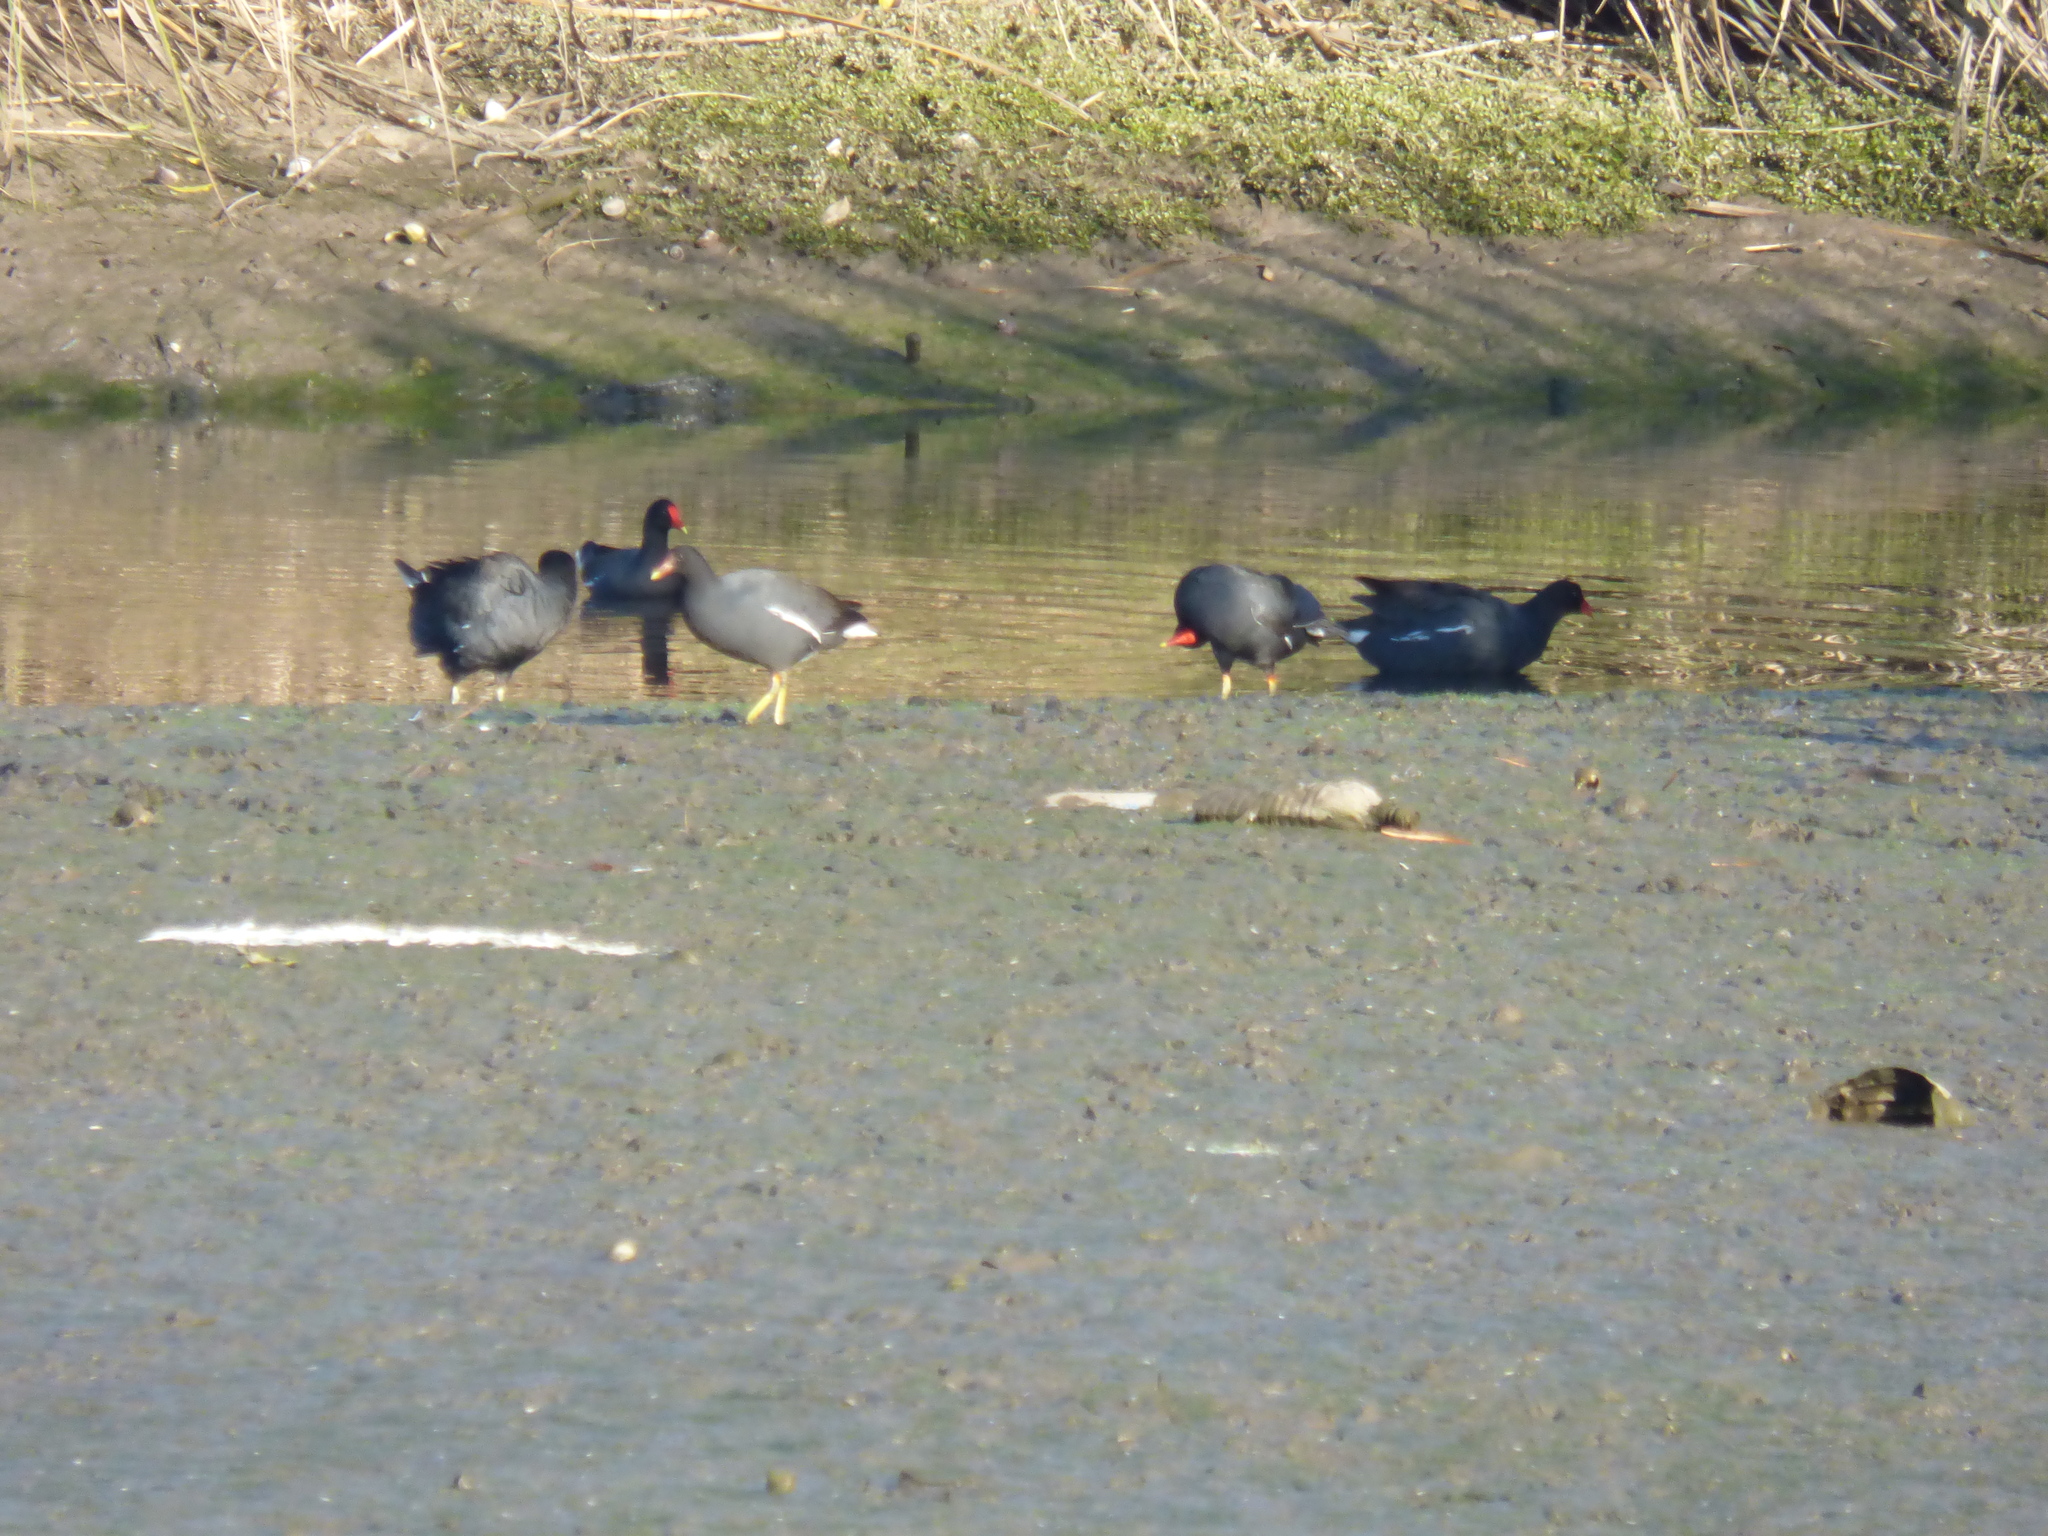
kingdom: Animalia
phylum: Chordata
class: Aves
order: Gruiformes
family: Rallidae
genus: Gallinula
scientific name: Gallinula chloropus
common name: Common moorhen
